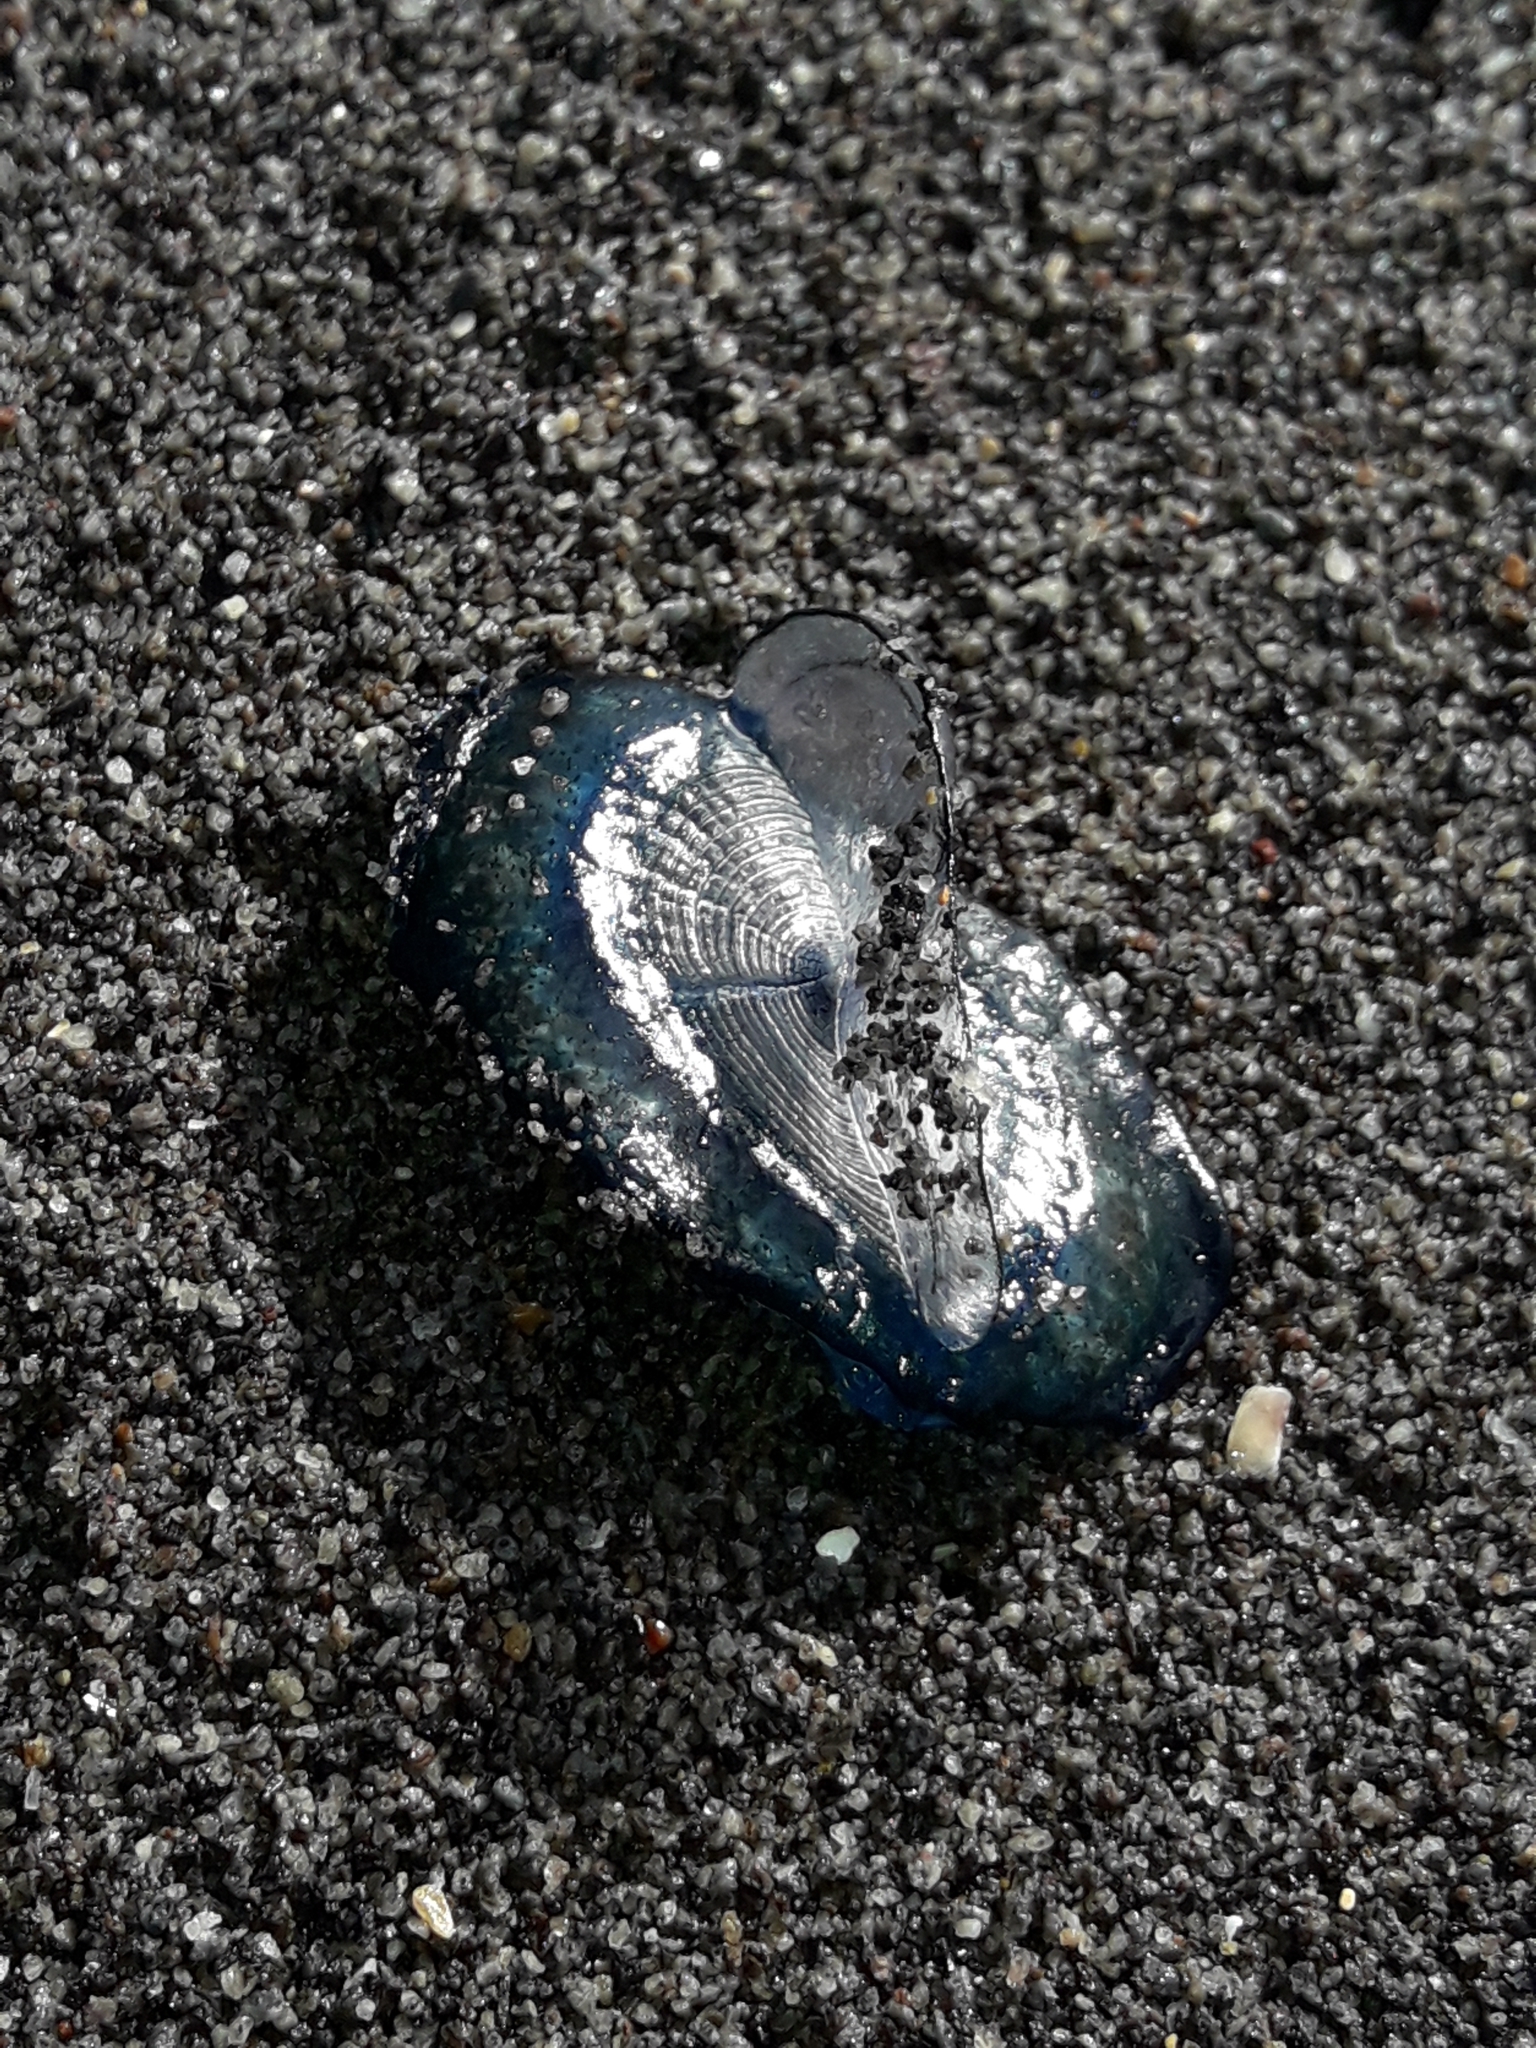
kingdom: Animalia
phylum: Cnidaria
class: Hydrozoa
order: Anthoathecata
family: Porpitidae
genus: Velella
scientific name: Velella velella
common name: By-the-wind-sailor
